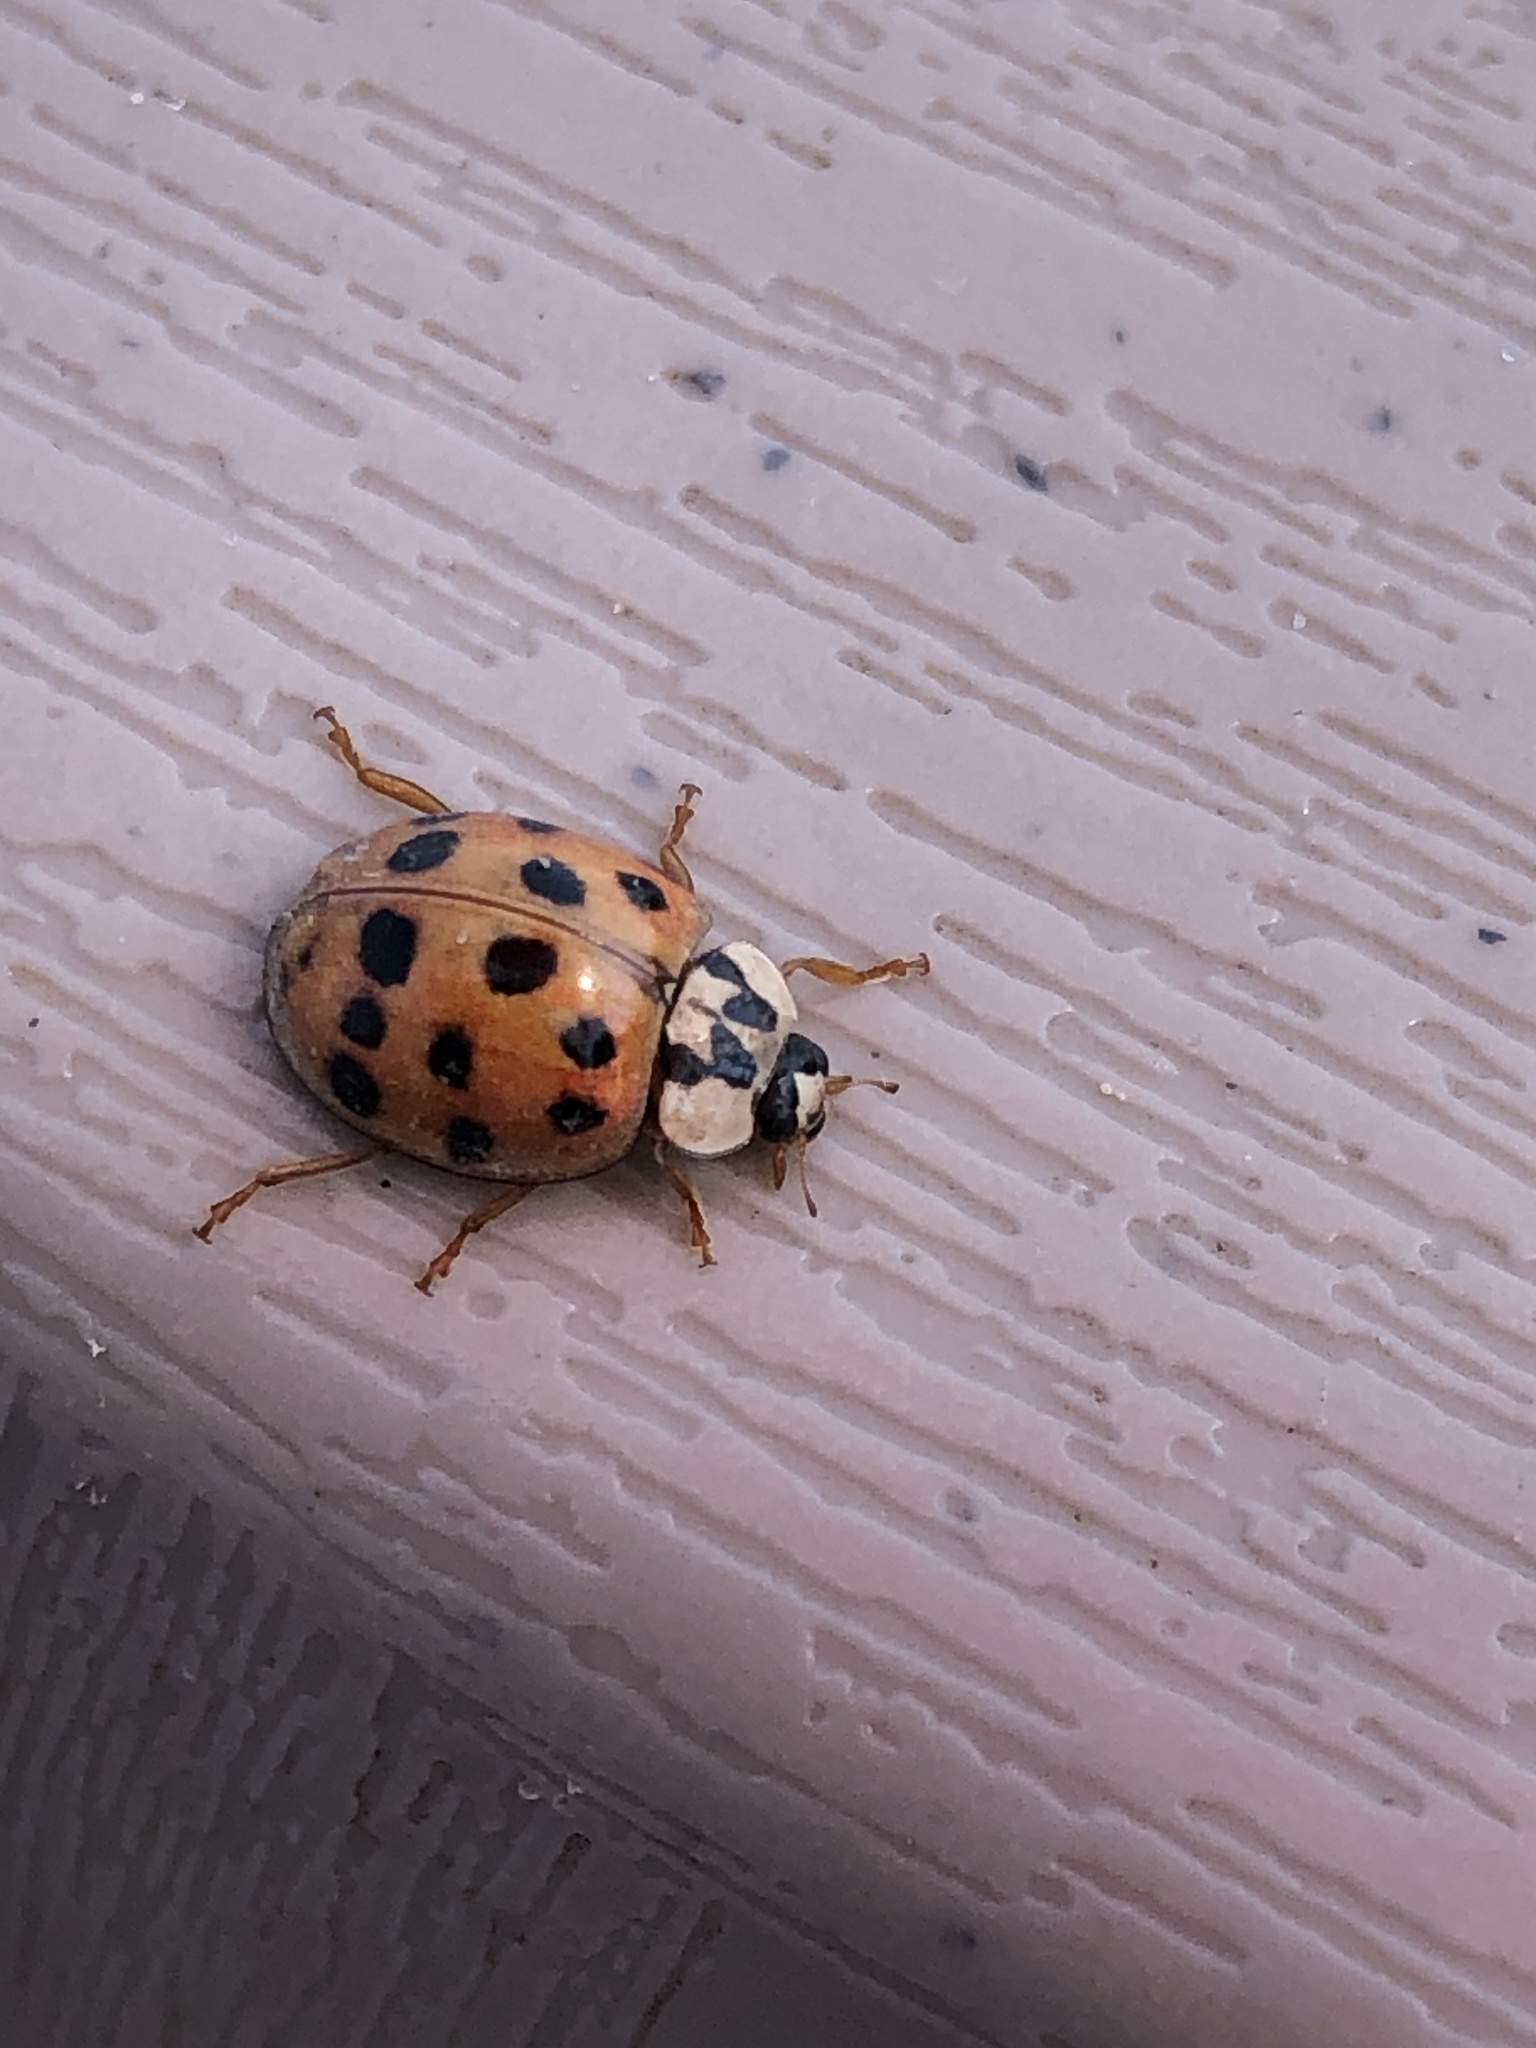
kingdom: Animalia
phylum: Arthropoda
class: Insecta
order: Coleoptera
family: Coccinellidae
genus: Harmonia
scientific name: Harmonia axyridis
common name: Harlequin ladybird
